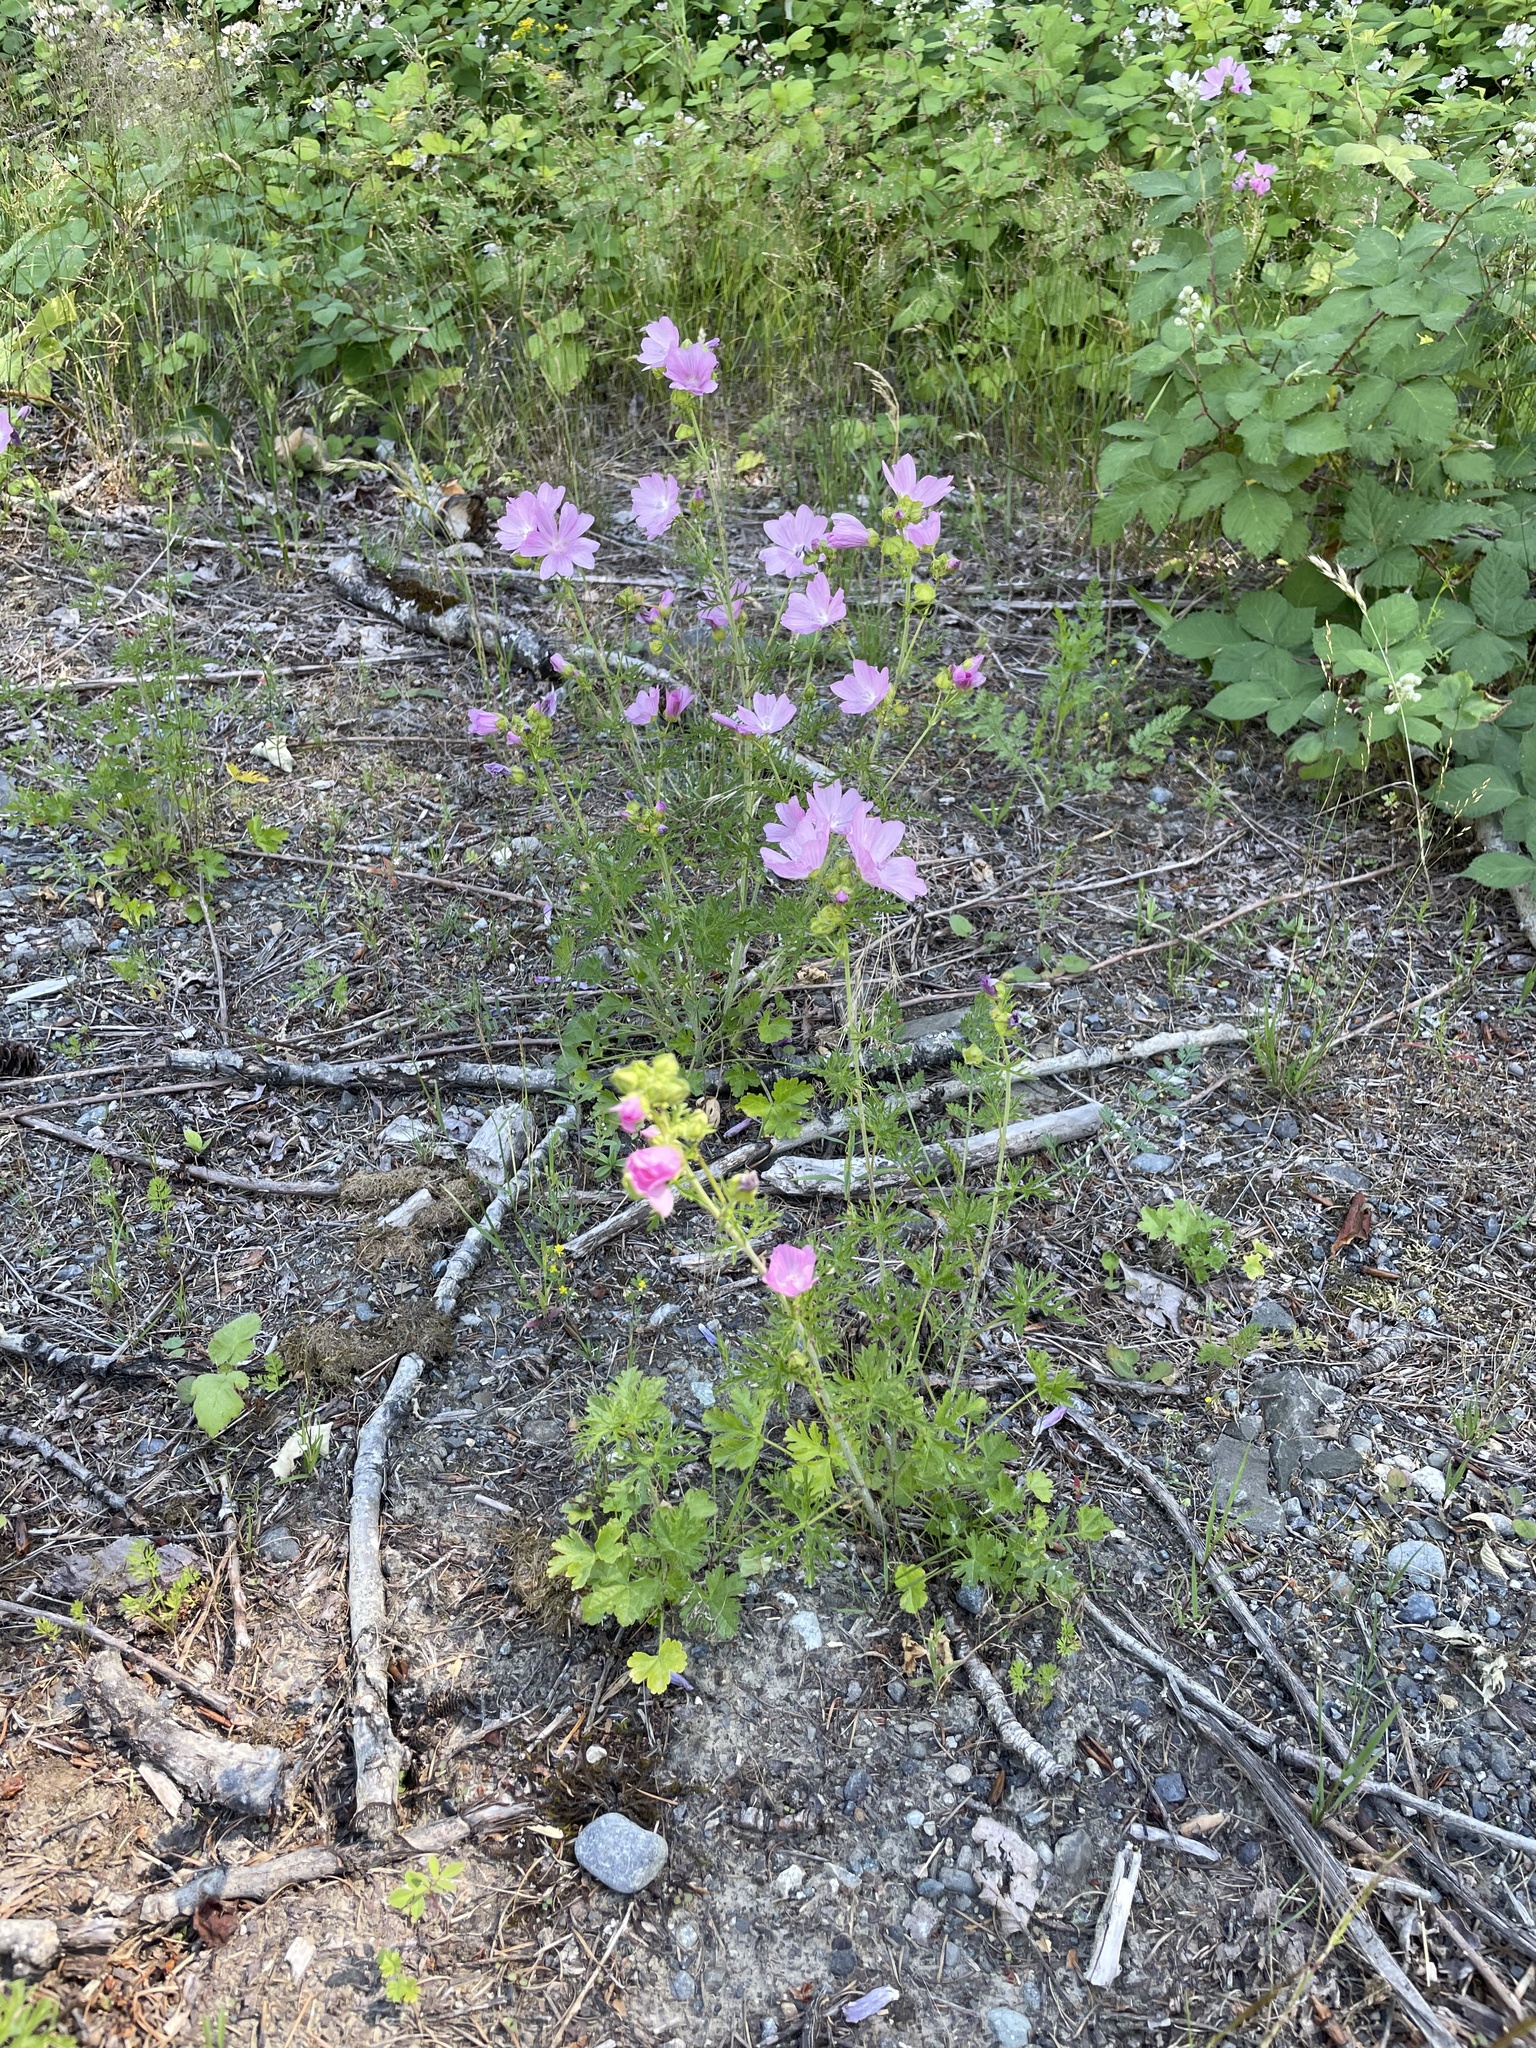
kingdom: Plantae
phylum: Tracheophyta
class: Magnoliopsida
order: Malvales
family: Malvaceae
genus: Malva
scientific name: Malva moschata
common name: Musk mallow
